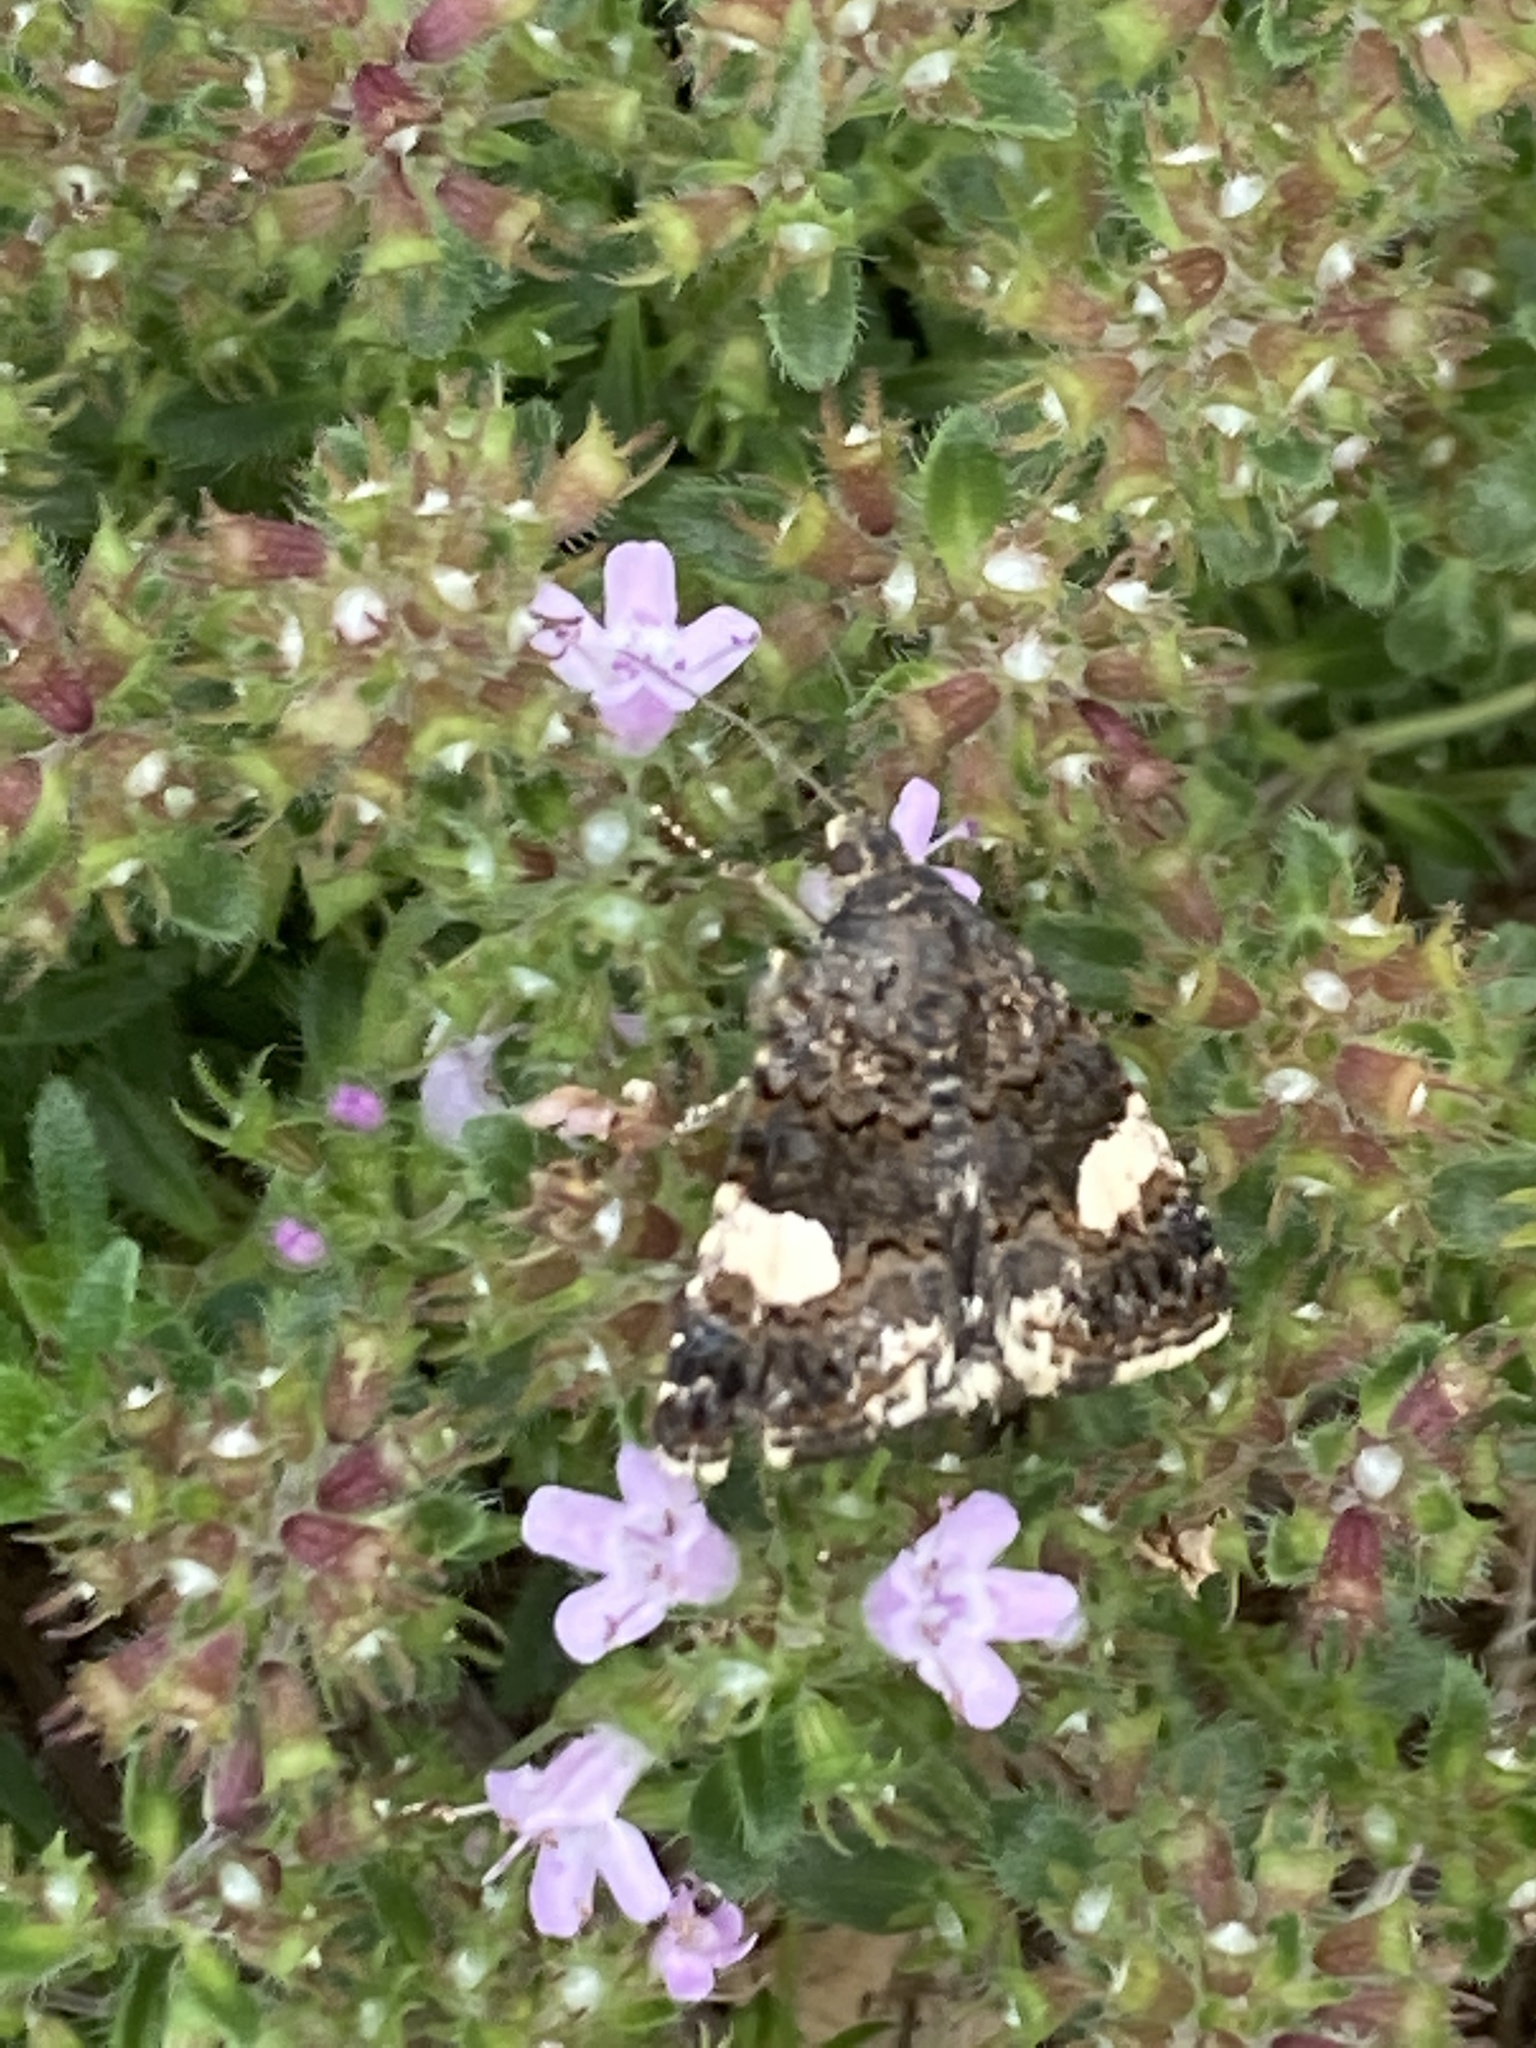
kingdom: Animalia
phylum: Arthropoda
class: Insecta
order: Lepidoptera
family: Erebidae
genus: Tyta
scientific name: Tyta luctuosa
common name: Four-spotted
